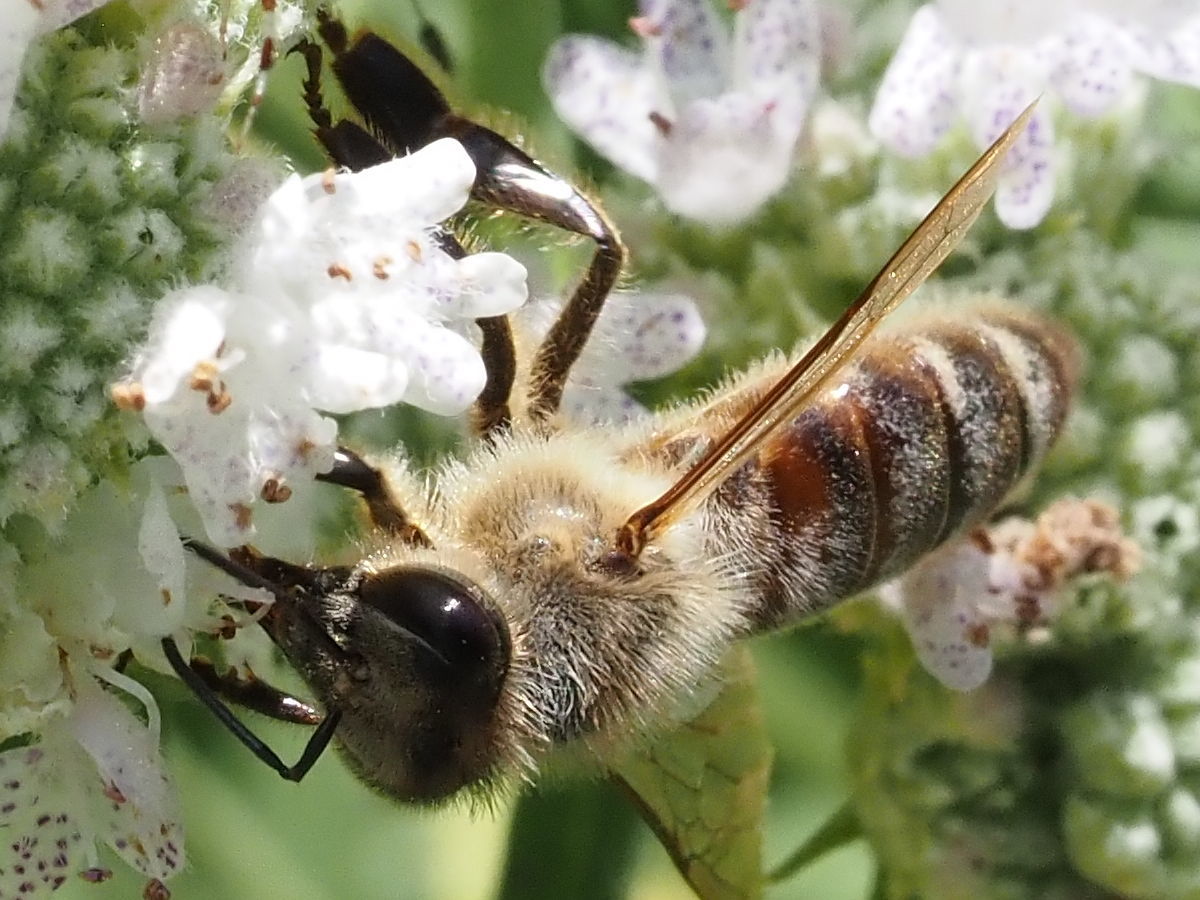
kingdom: Animalia
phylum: Arthropoda
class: Insecta
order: Hymenoptera
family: Apidae
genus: Apis
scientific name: Apis mellifera
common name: Honey bee
